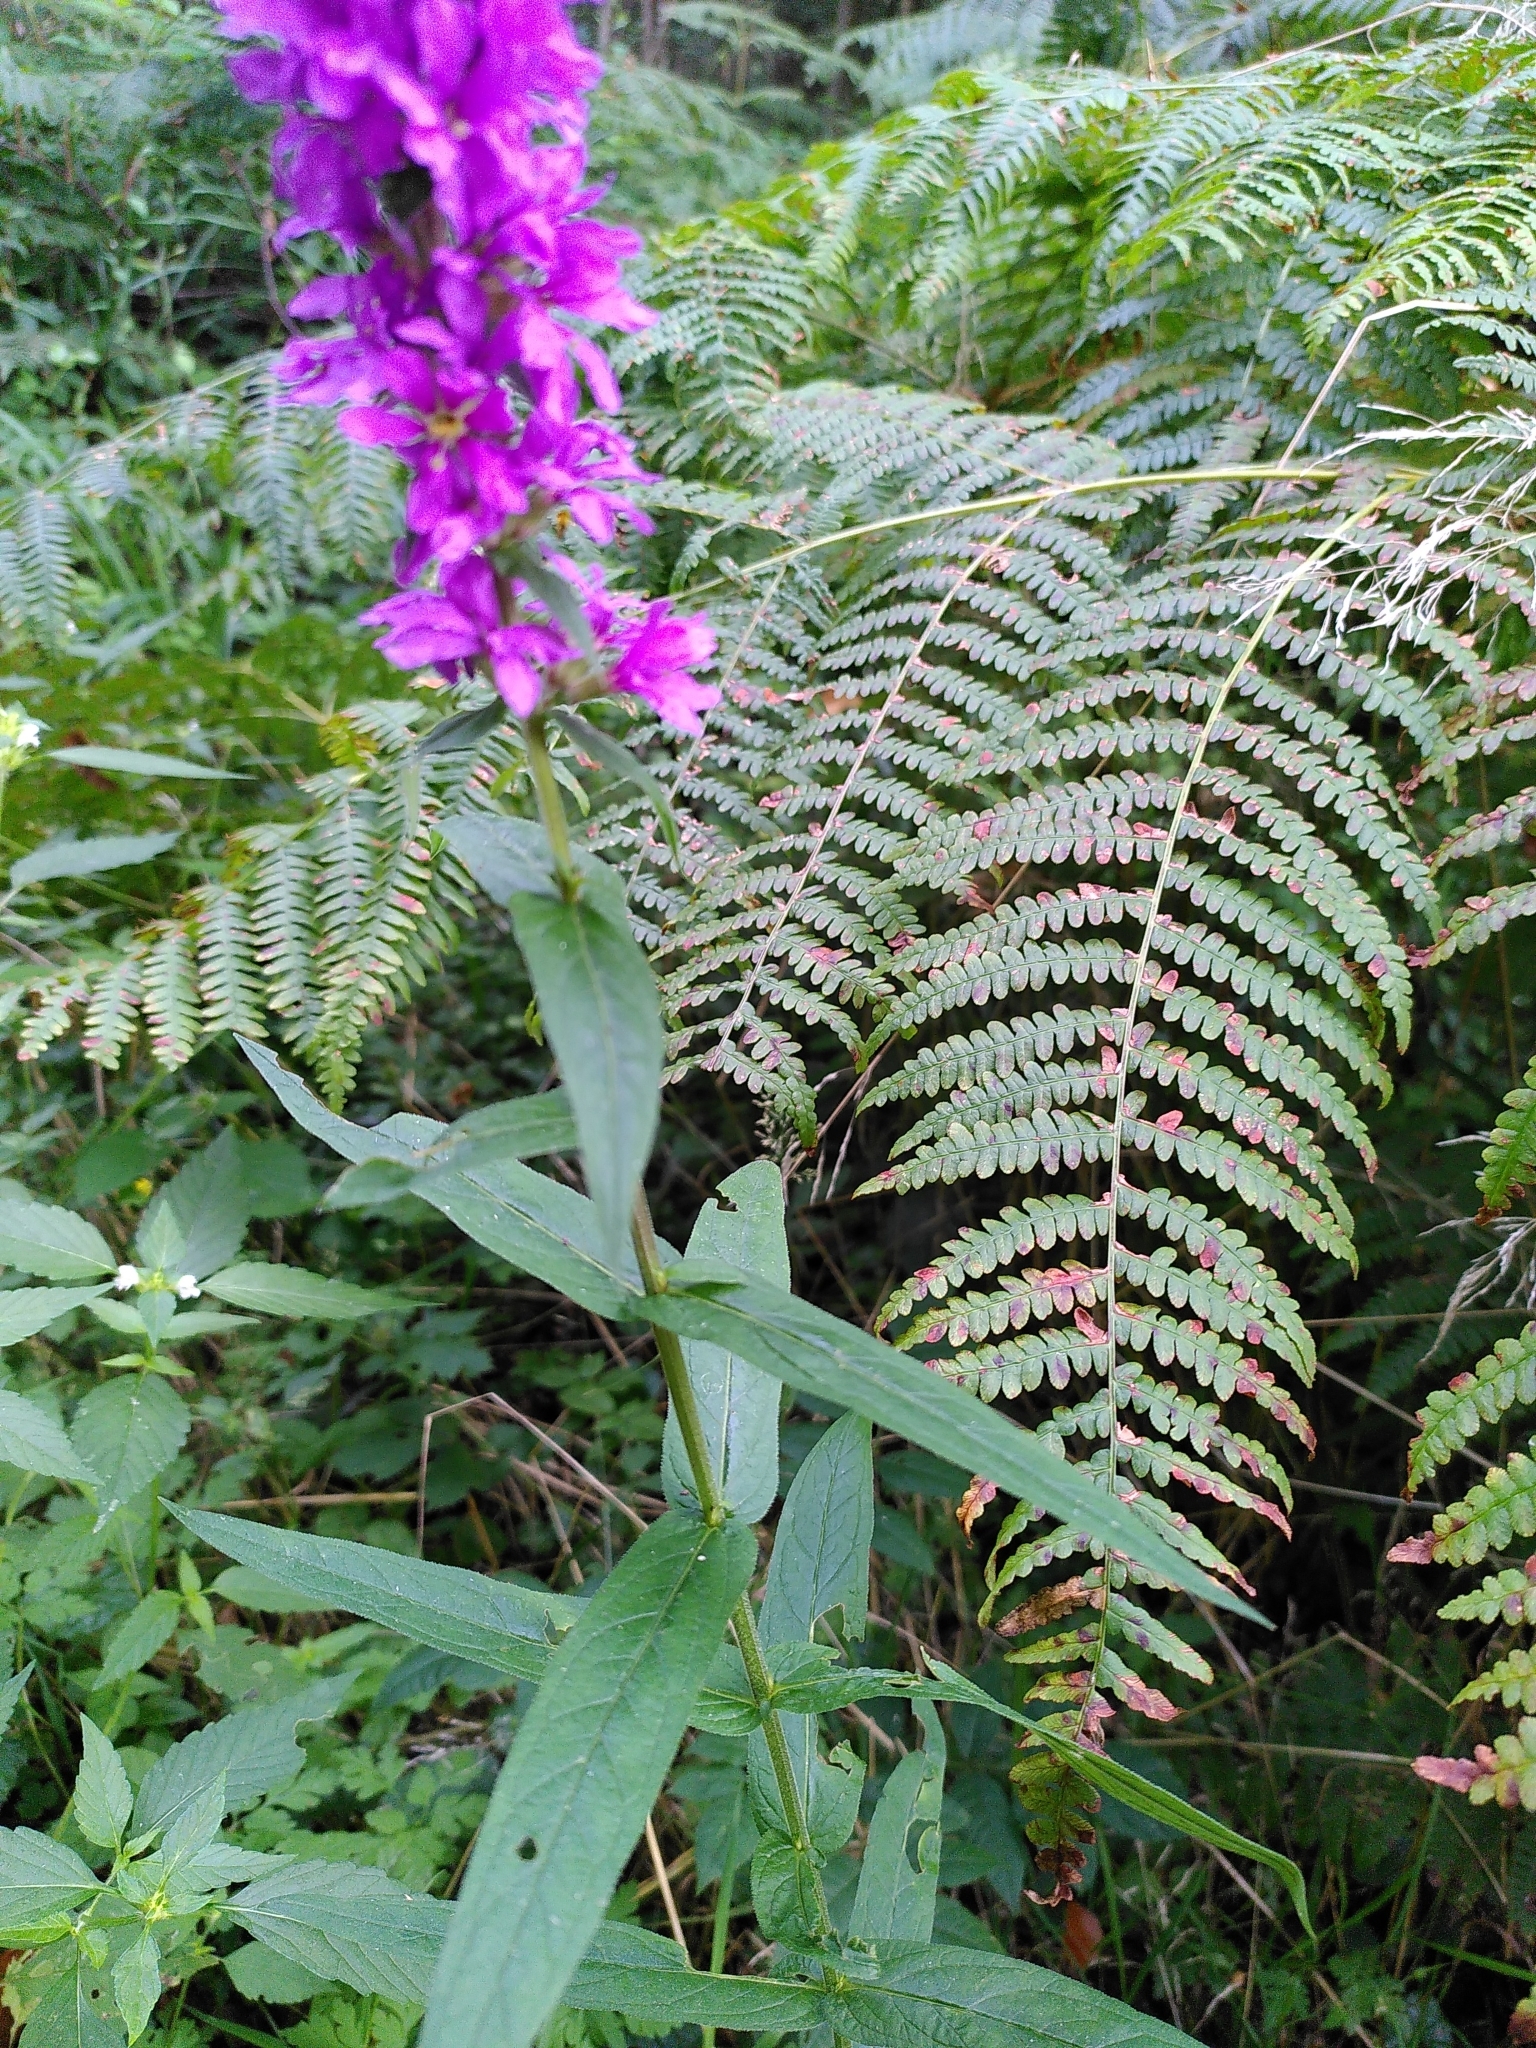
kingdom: Plantae
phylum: Tracheophyta
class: Magnoliopsida
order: Myrtales
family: Lythraceae
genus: Lythrum
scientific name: Lythrum salicaria
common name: Purple loosestrife
